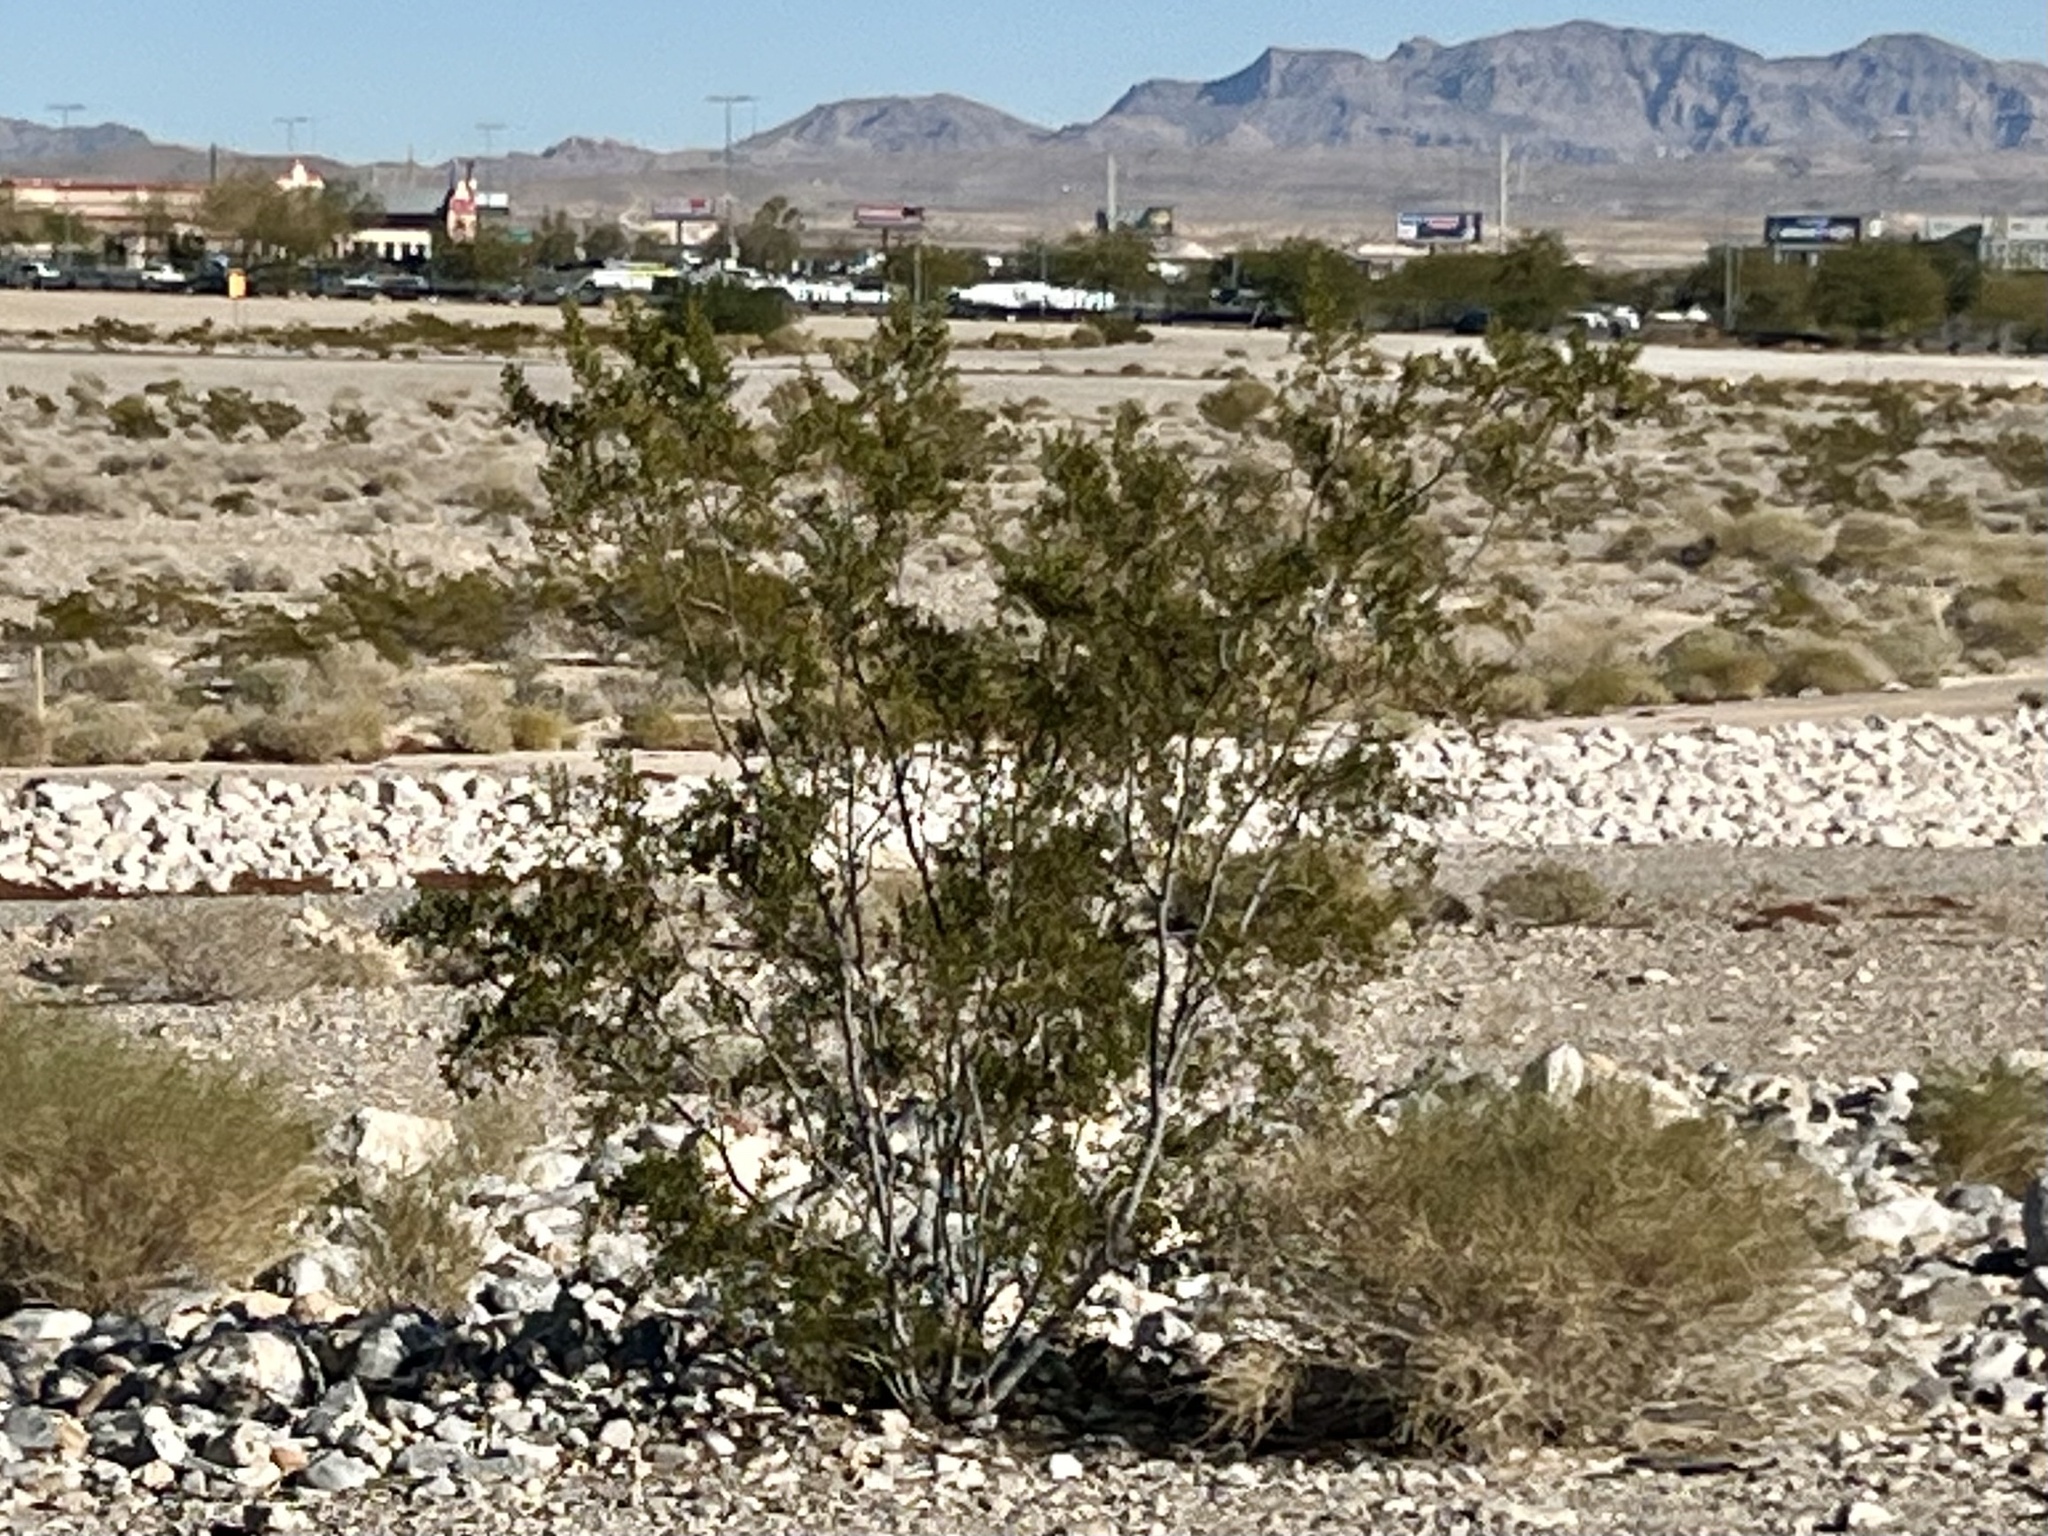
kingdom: Plantae
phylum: Tracheophyta
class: Magnoliopsida
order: Zygophyllales
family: Zygophyllaceae
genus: Larrea
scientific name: Larrea tridentata
